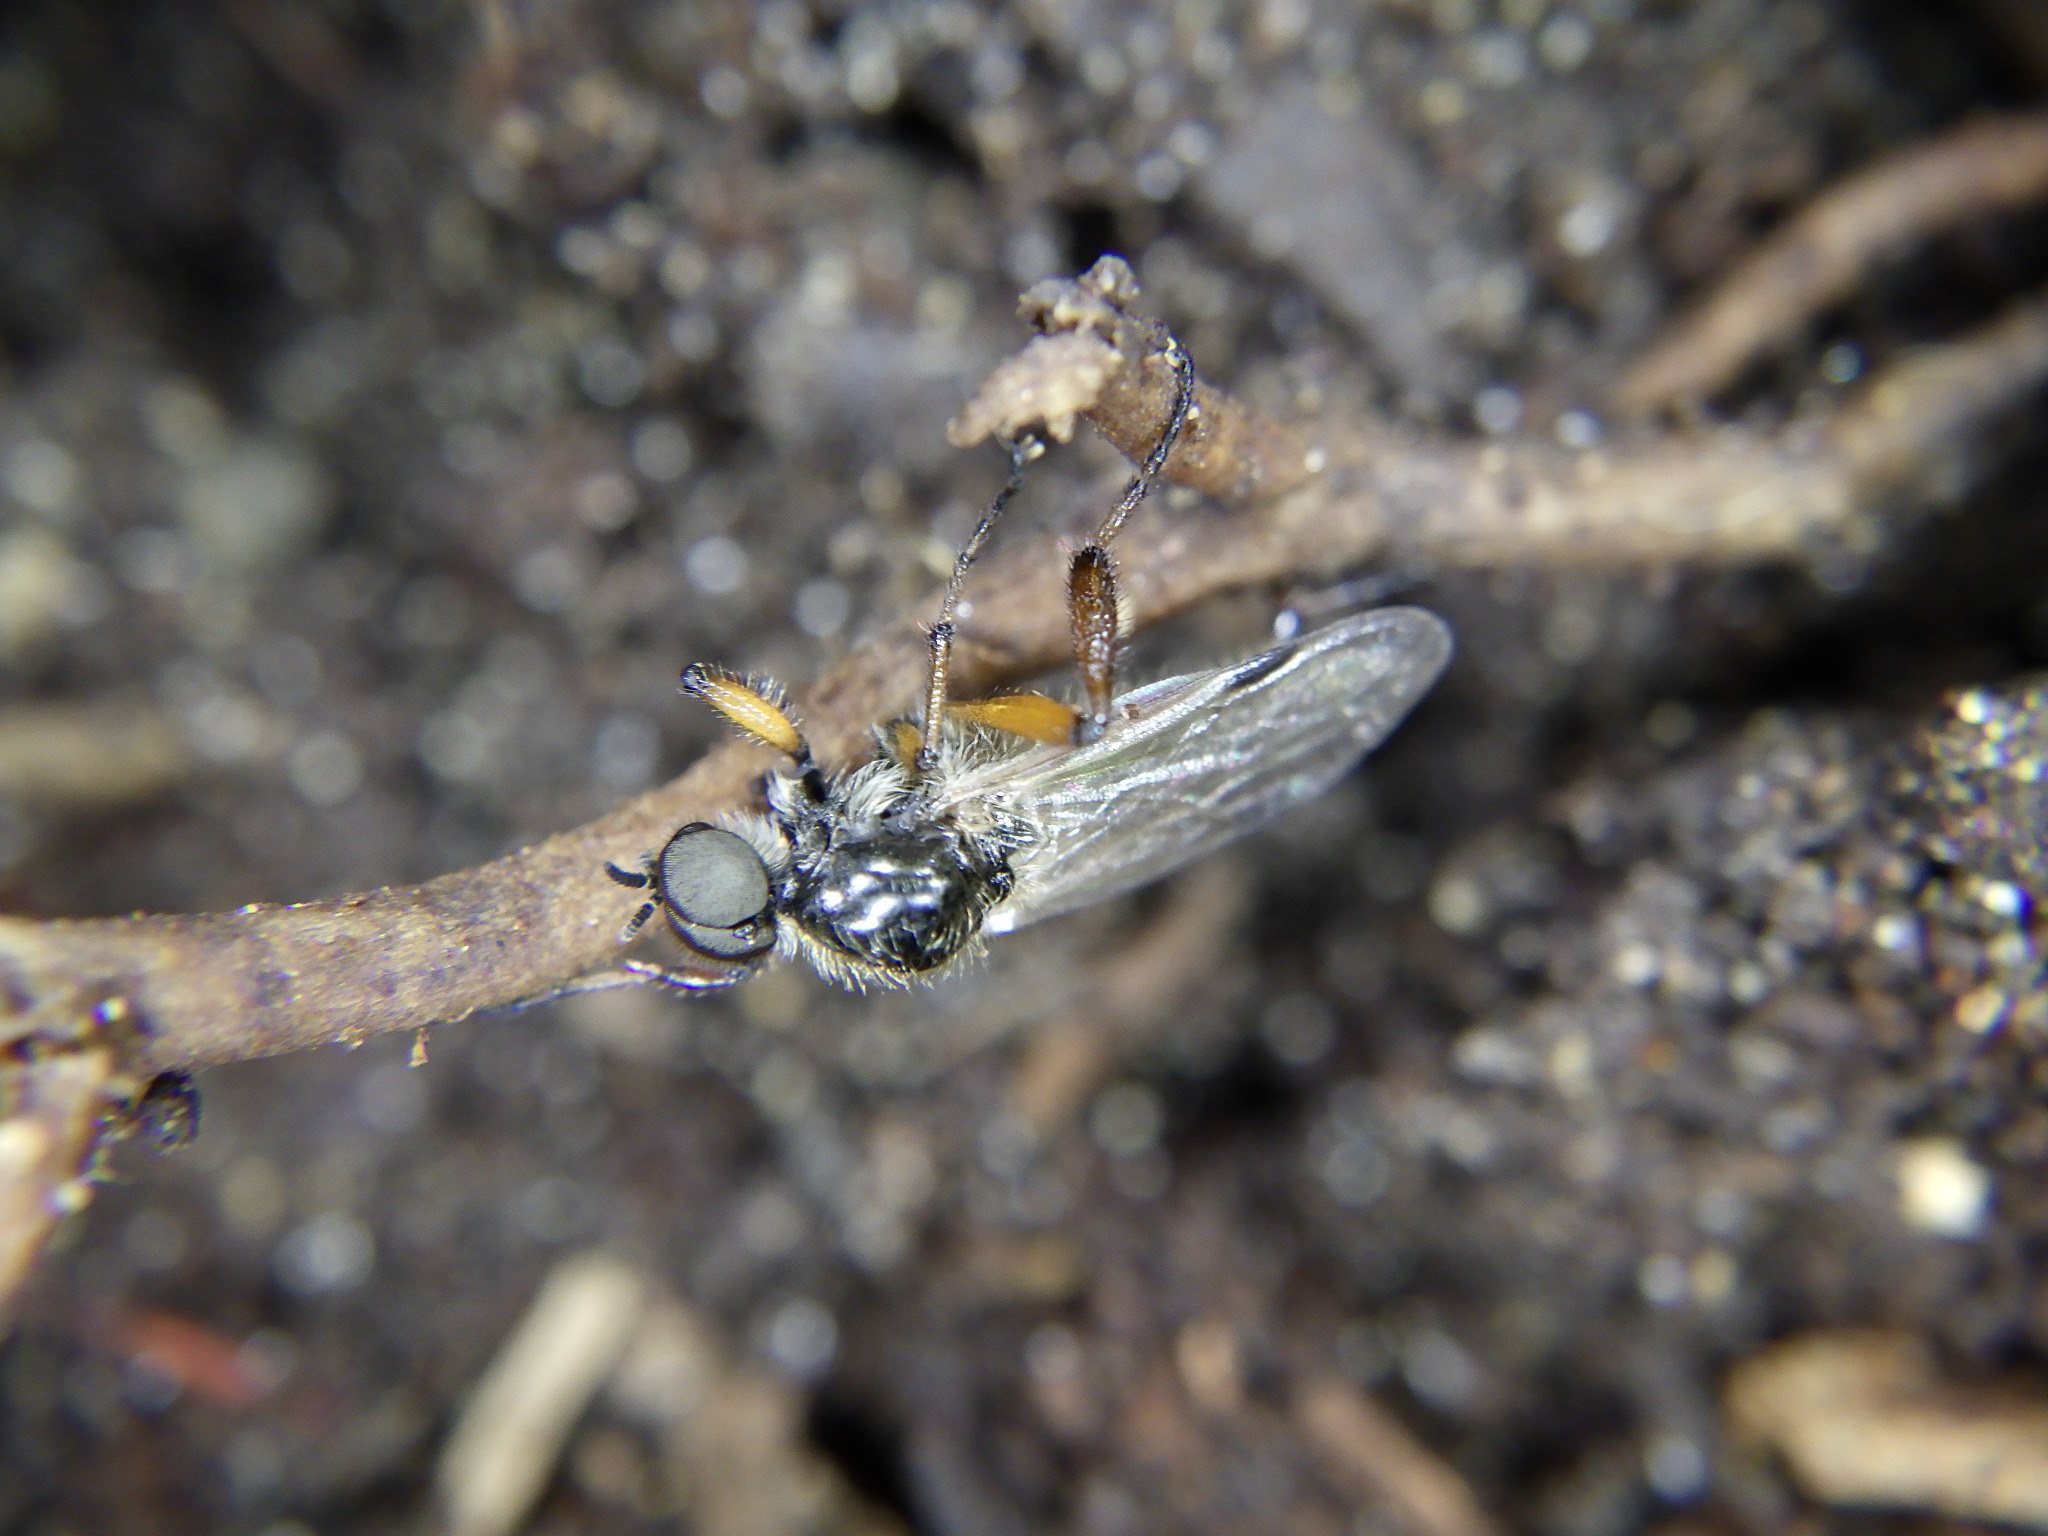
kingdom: Animalia
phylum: Arthropoda
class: Insecta
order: Diptera
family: Bibionidae
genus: Bibio
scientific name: Bibio articulatus
